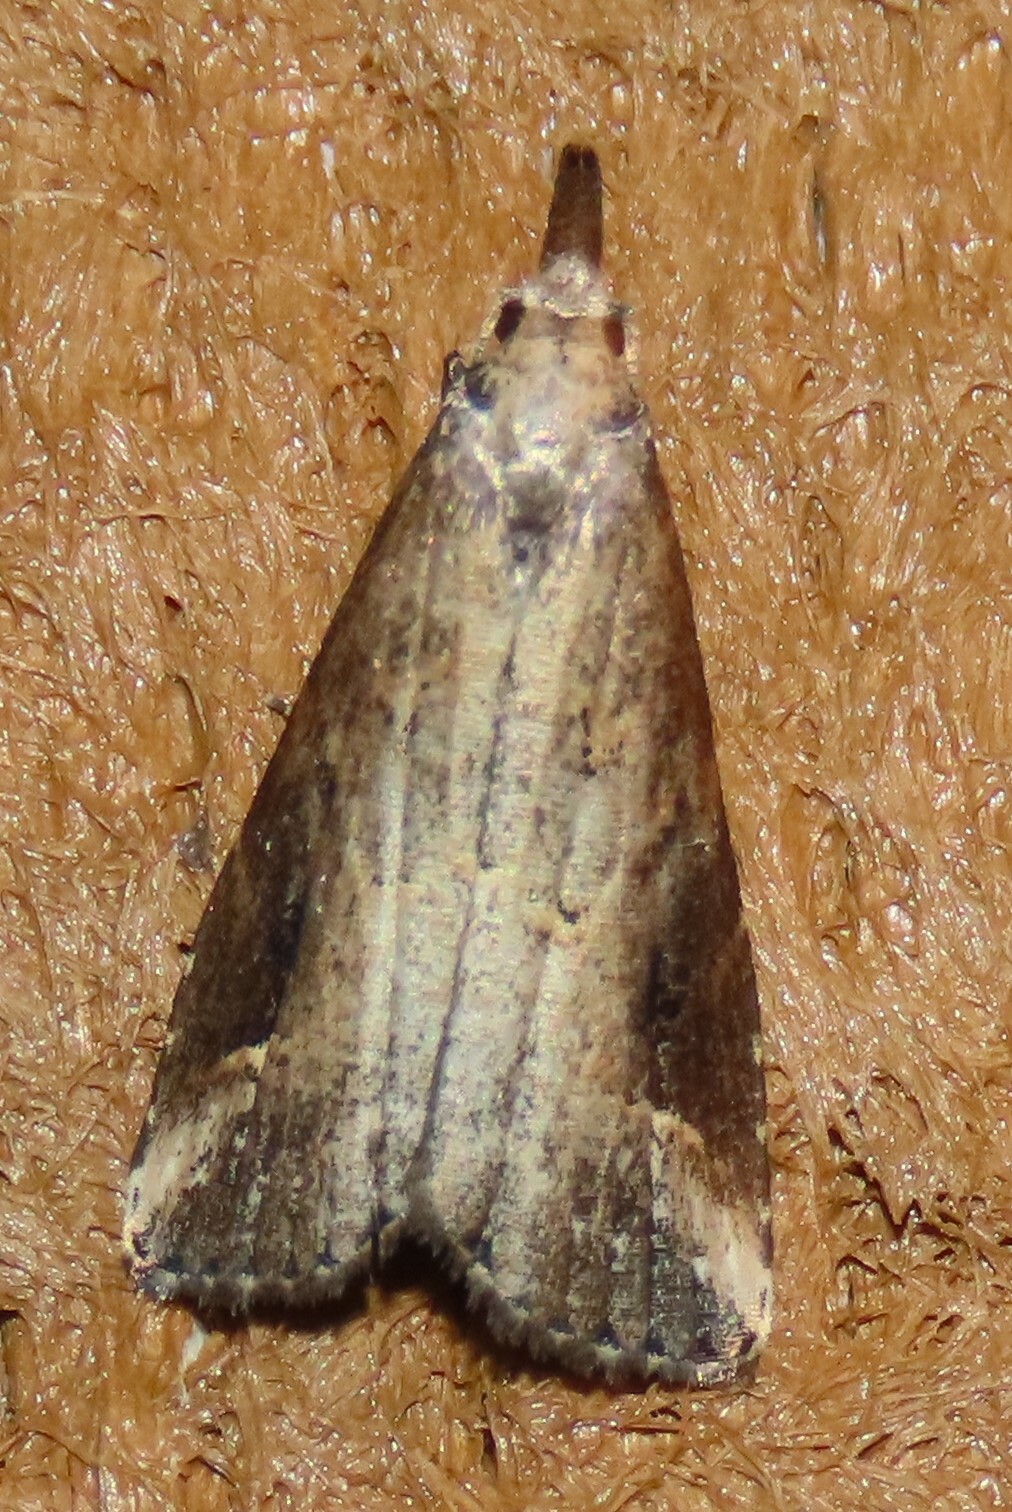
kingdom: Animalia
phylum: Arthropoda
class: Insecta
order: Lepidoptera
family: Erebidae
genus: Schrankia
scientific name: Schrankia costaestrigalis
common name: Pinion-streaked snout
